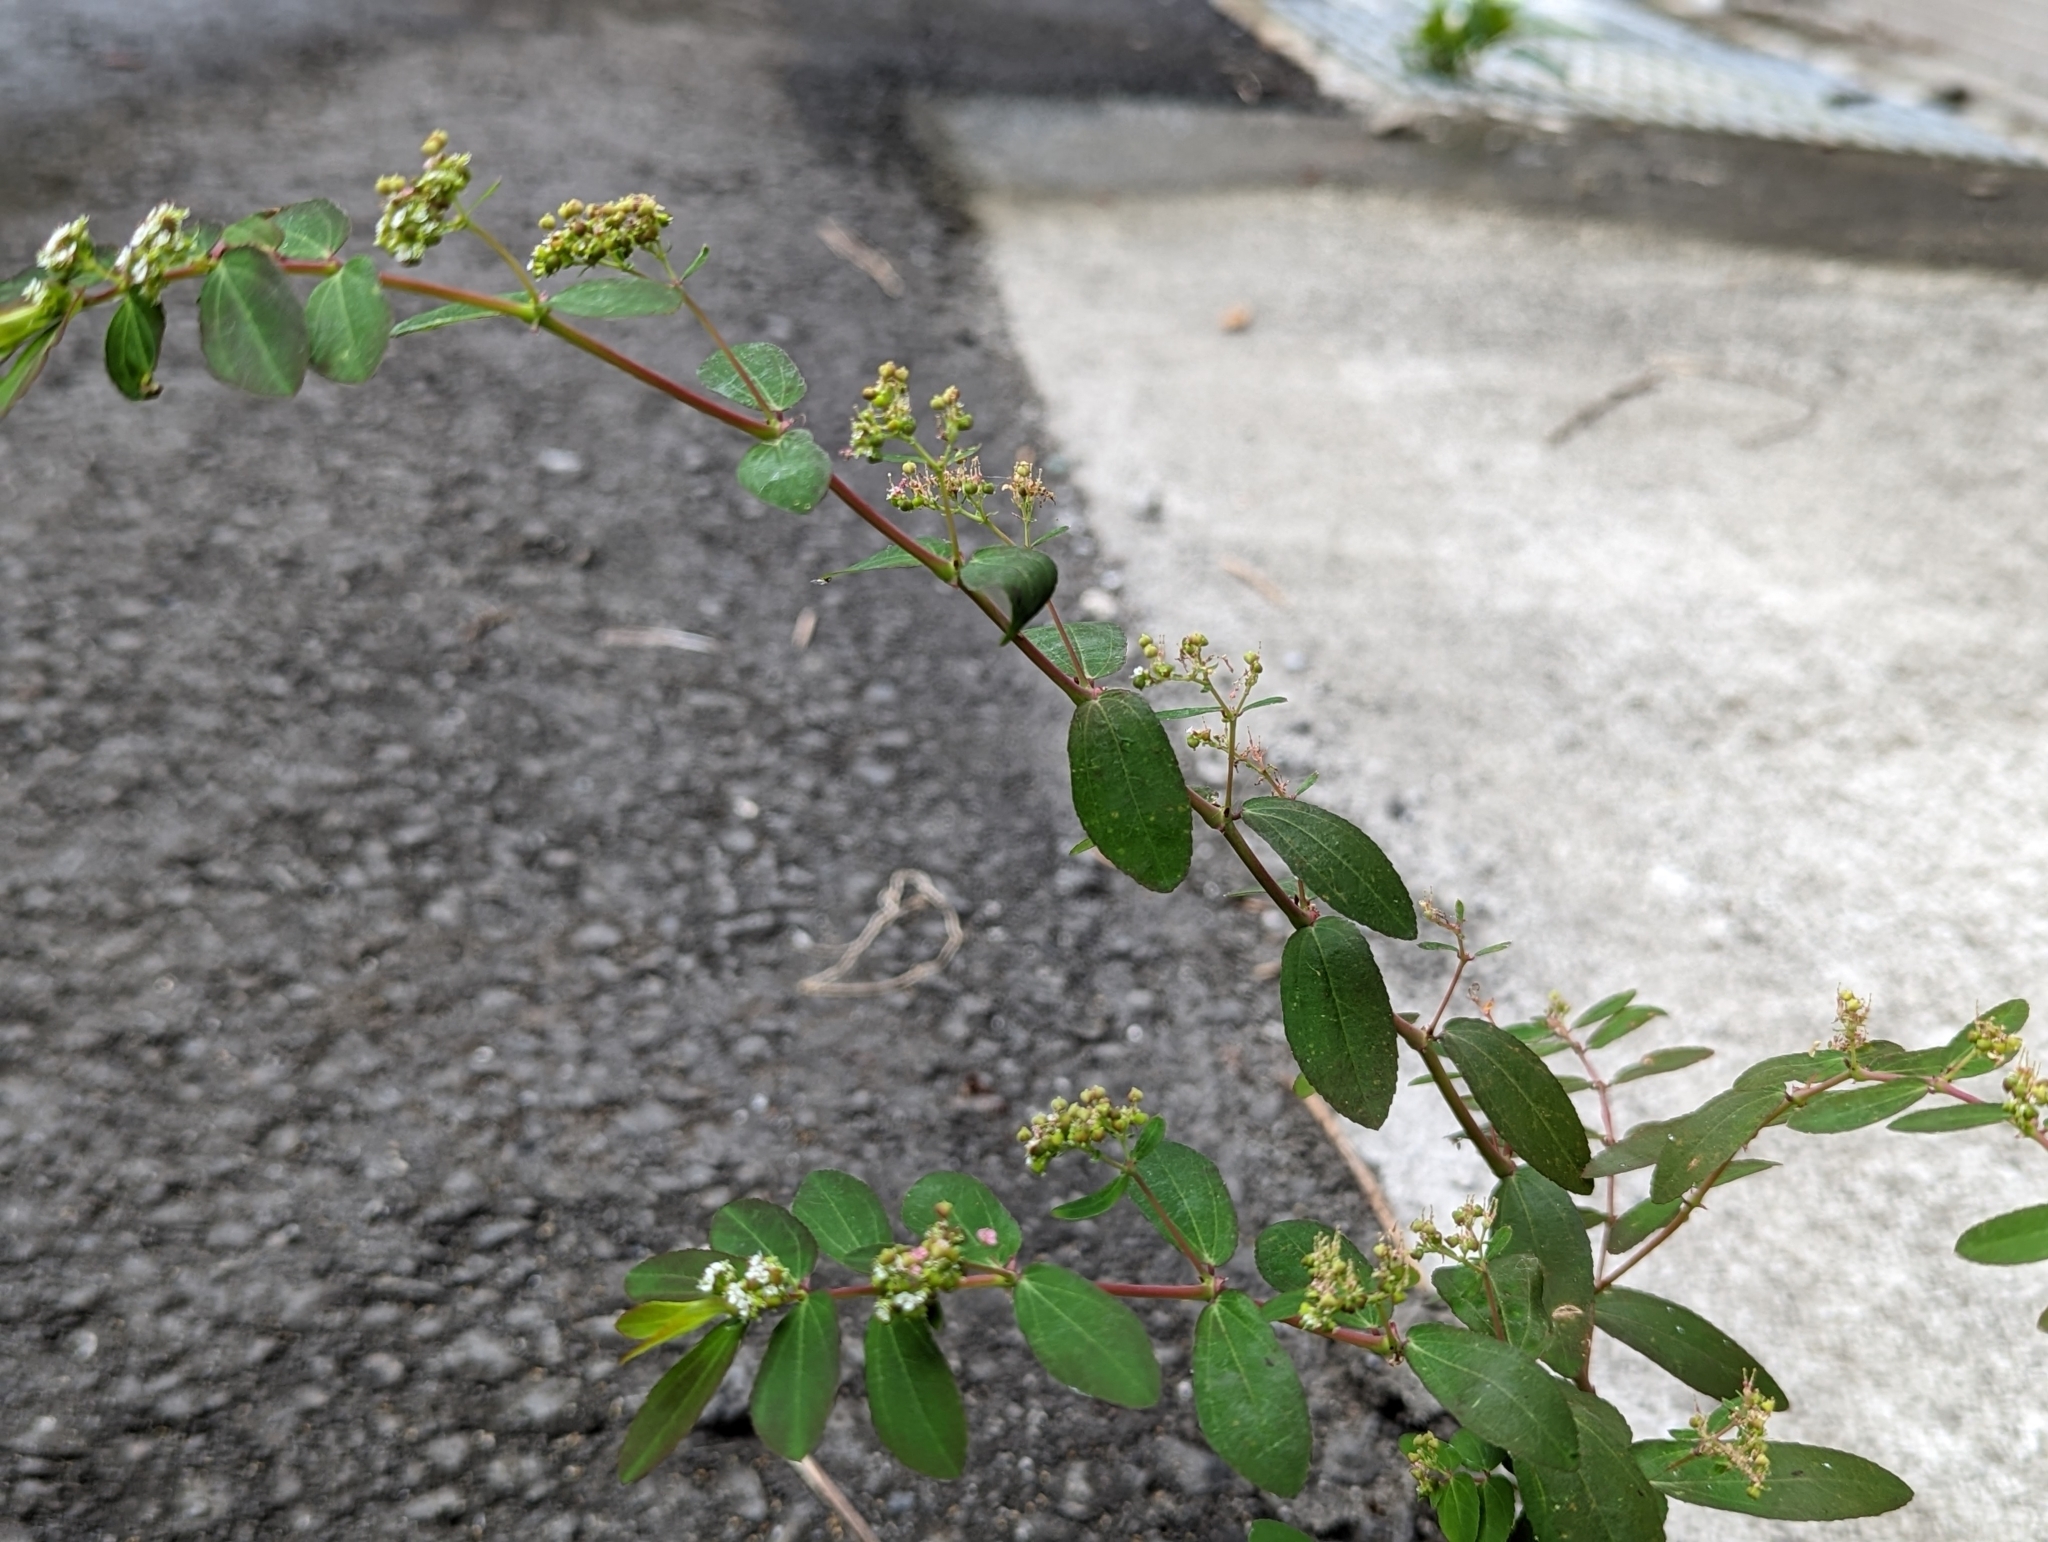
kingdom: Plantae
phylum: Tracheophyta
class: Magnoliopsida
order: Malpighiales
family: Euphorbiaceae
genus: Euphorbia
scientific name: Euphorbia hypericifolia
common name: Graceful sandmat
